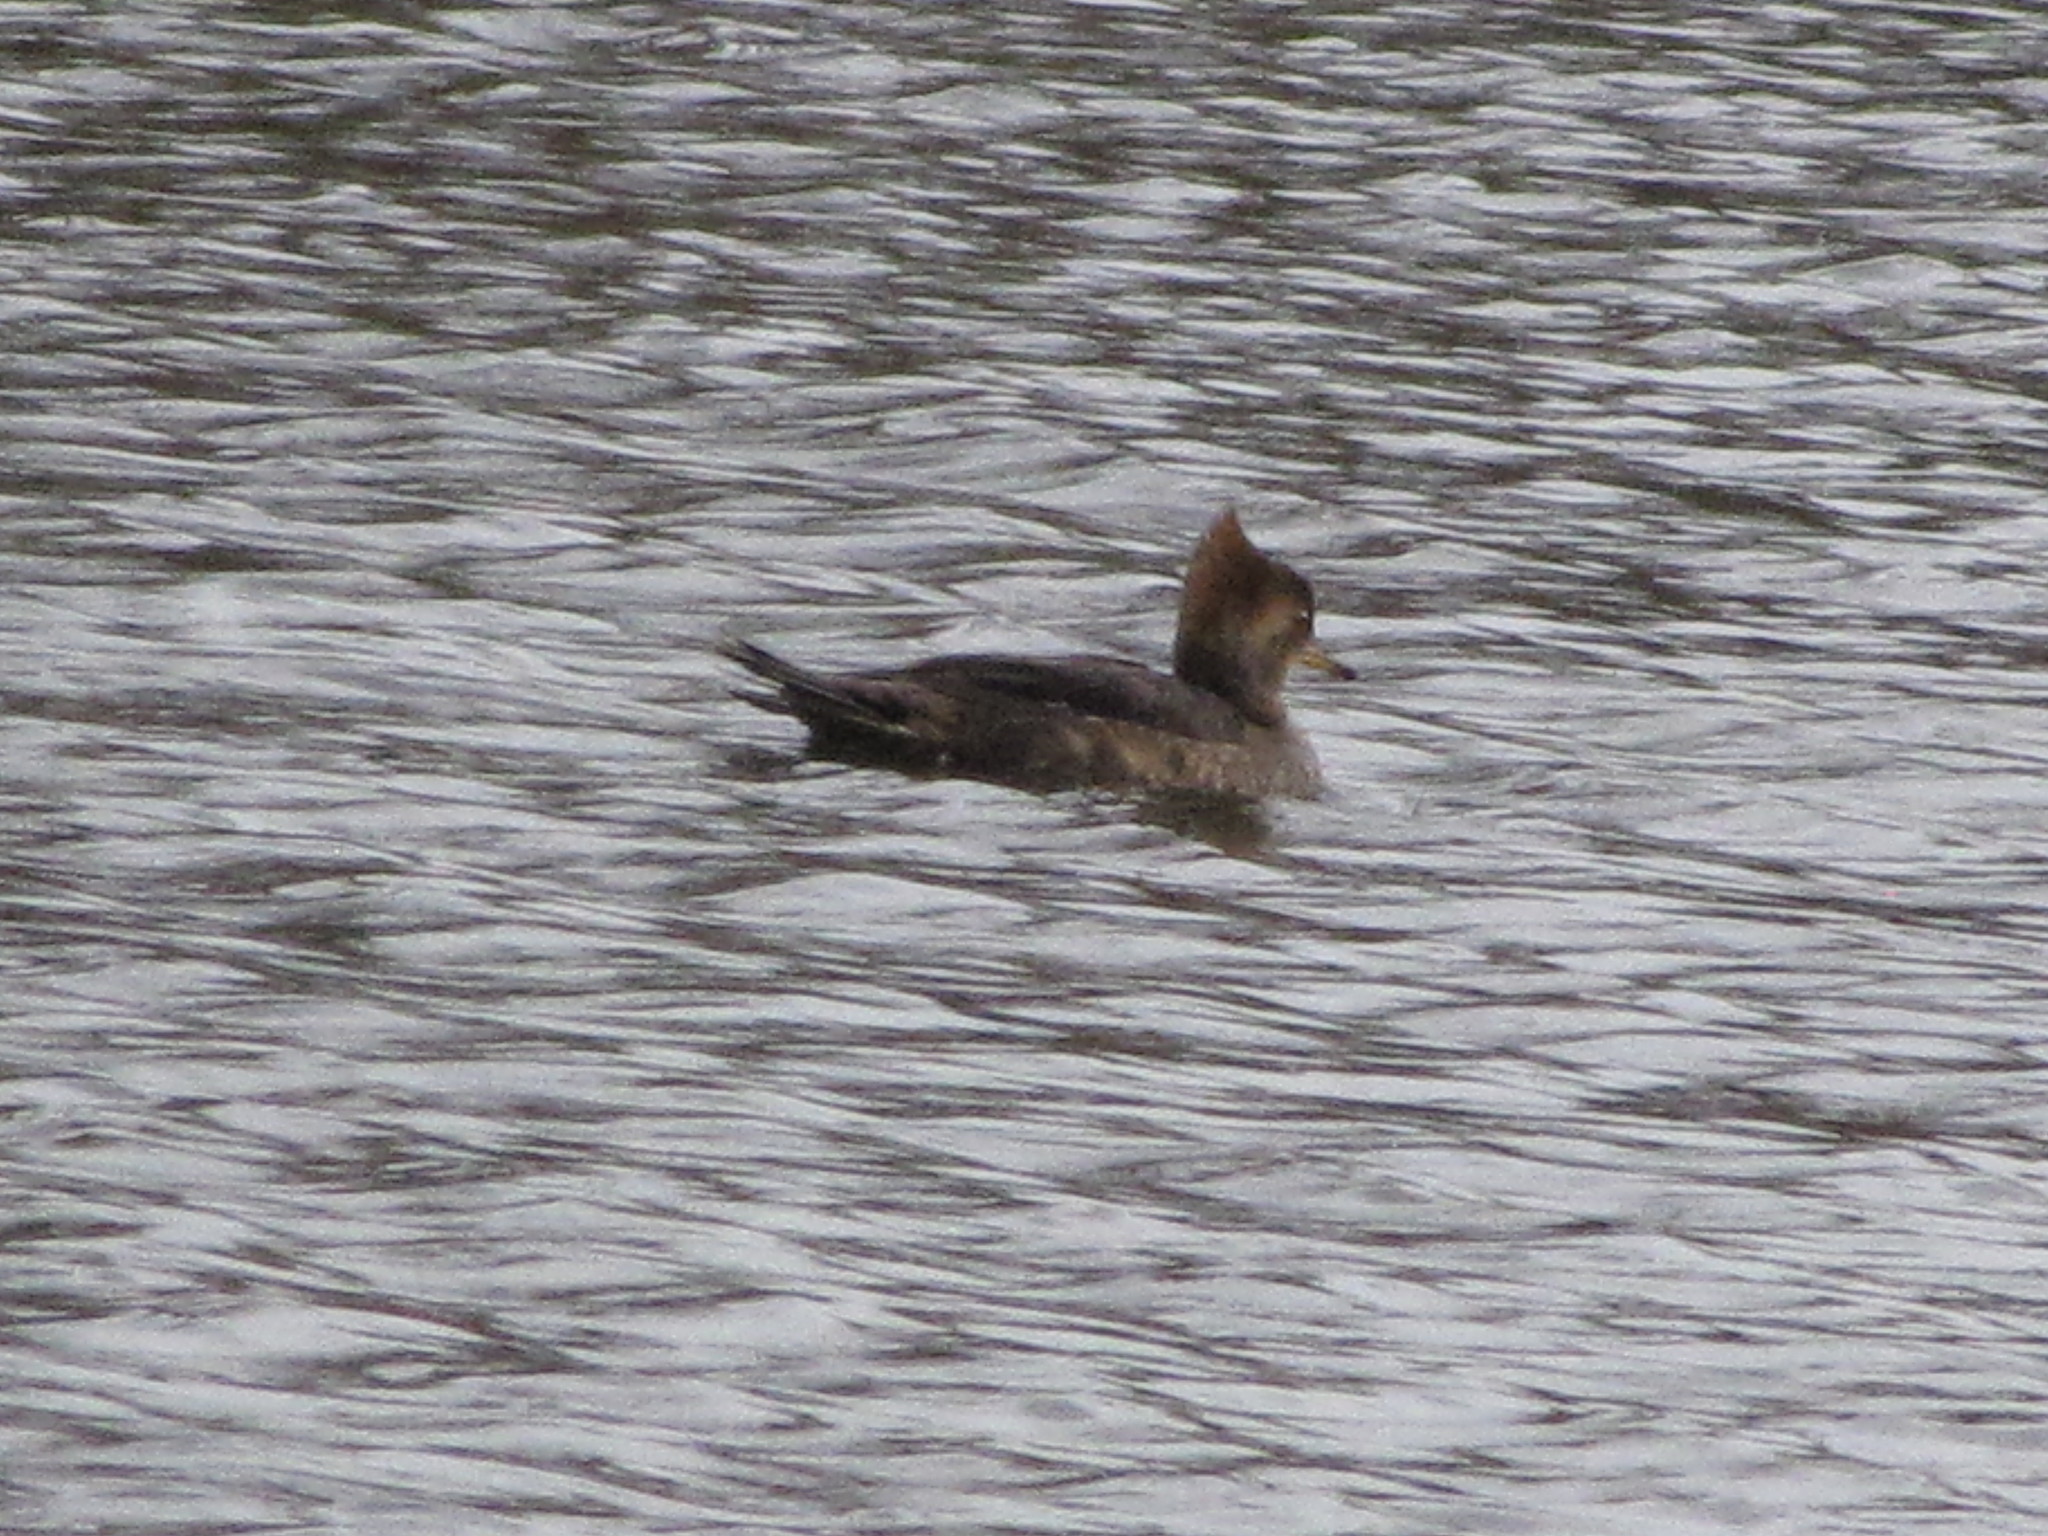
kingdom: Animalia
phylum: Chordata
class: Aves
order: Anseriformes
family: Anatidae
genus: Lophodytes
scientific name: Lophodytes cucullatus
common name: Hooded merganser
